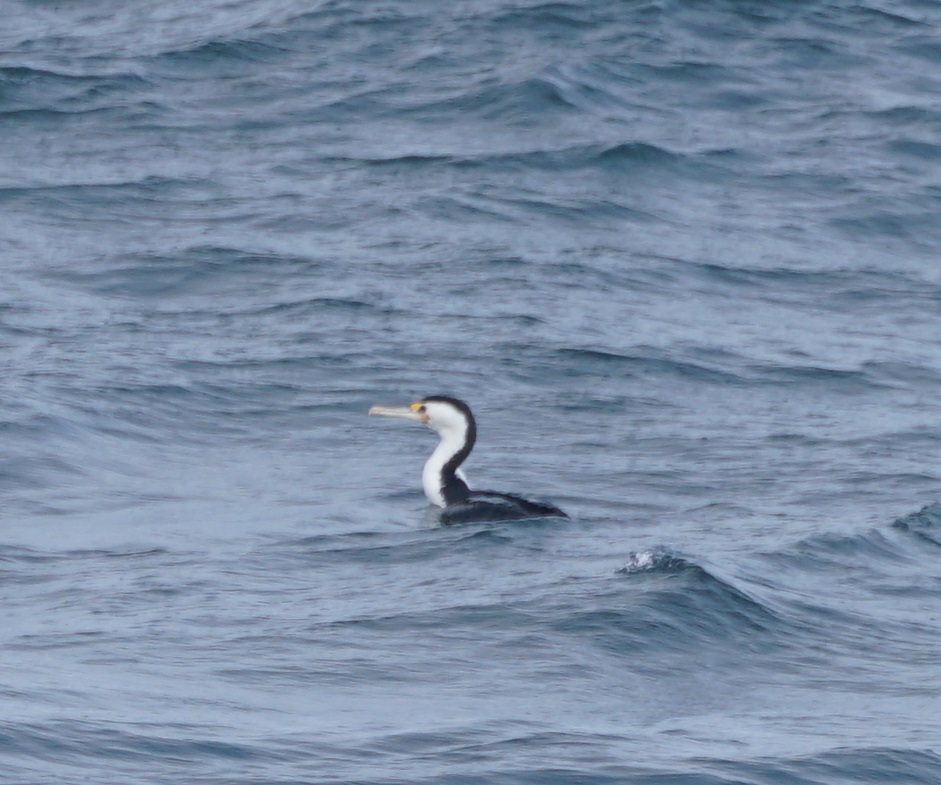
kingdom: Animalia
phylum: Chordata
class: Aves
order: Suliformes
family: Phalacrocoracidae
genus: Phalacrocorax
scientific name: Phalacrocorax varius
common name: Pied cormorant
